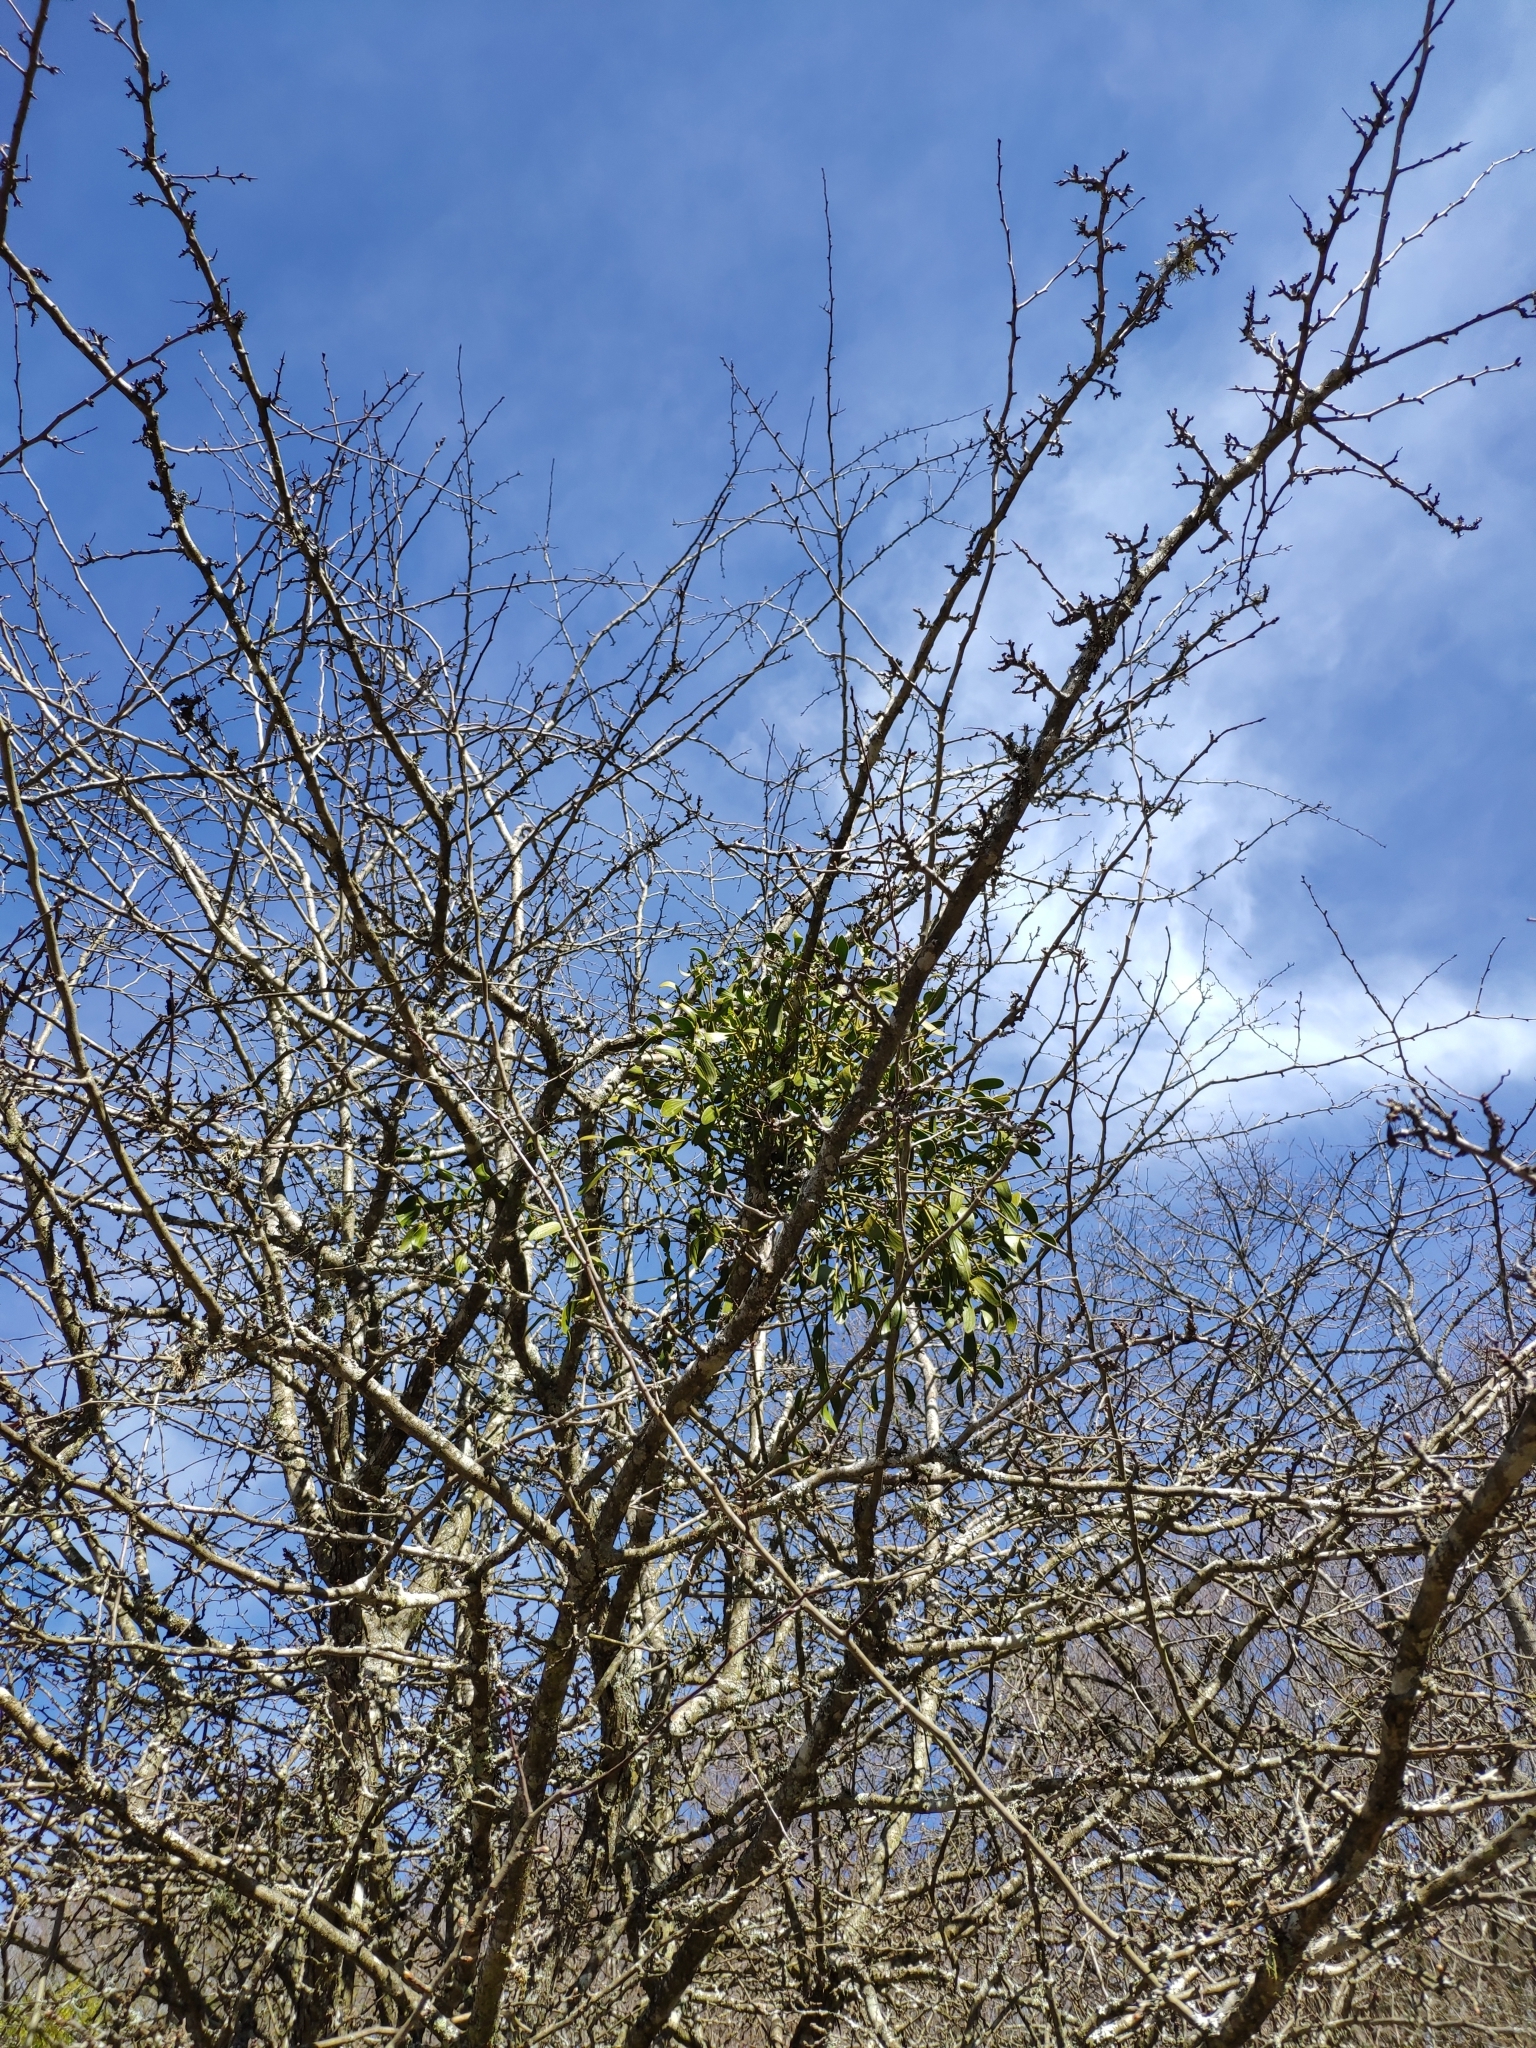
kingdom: Plantae
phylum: Tracheophyta
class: Magnoliopsida
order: Santalales
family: Viscaceae
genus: Viscum
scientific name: Viscum album
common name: Mistletoe
